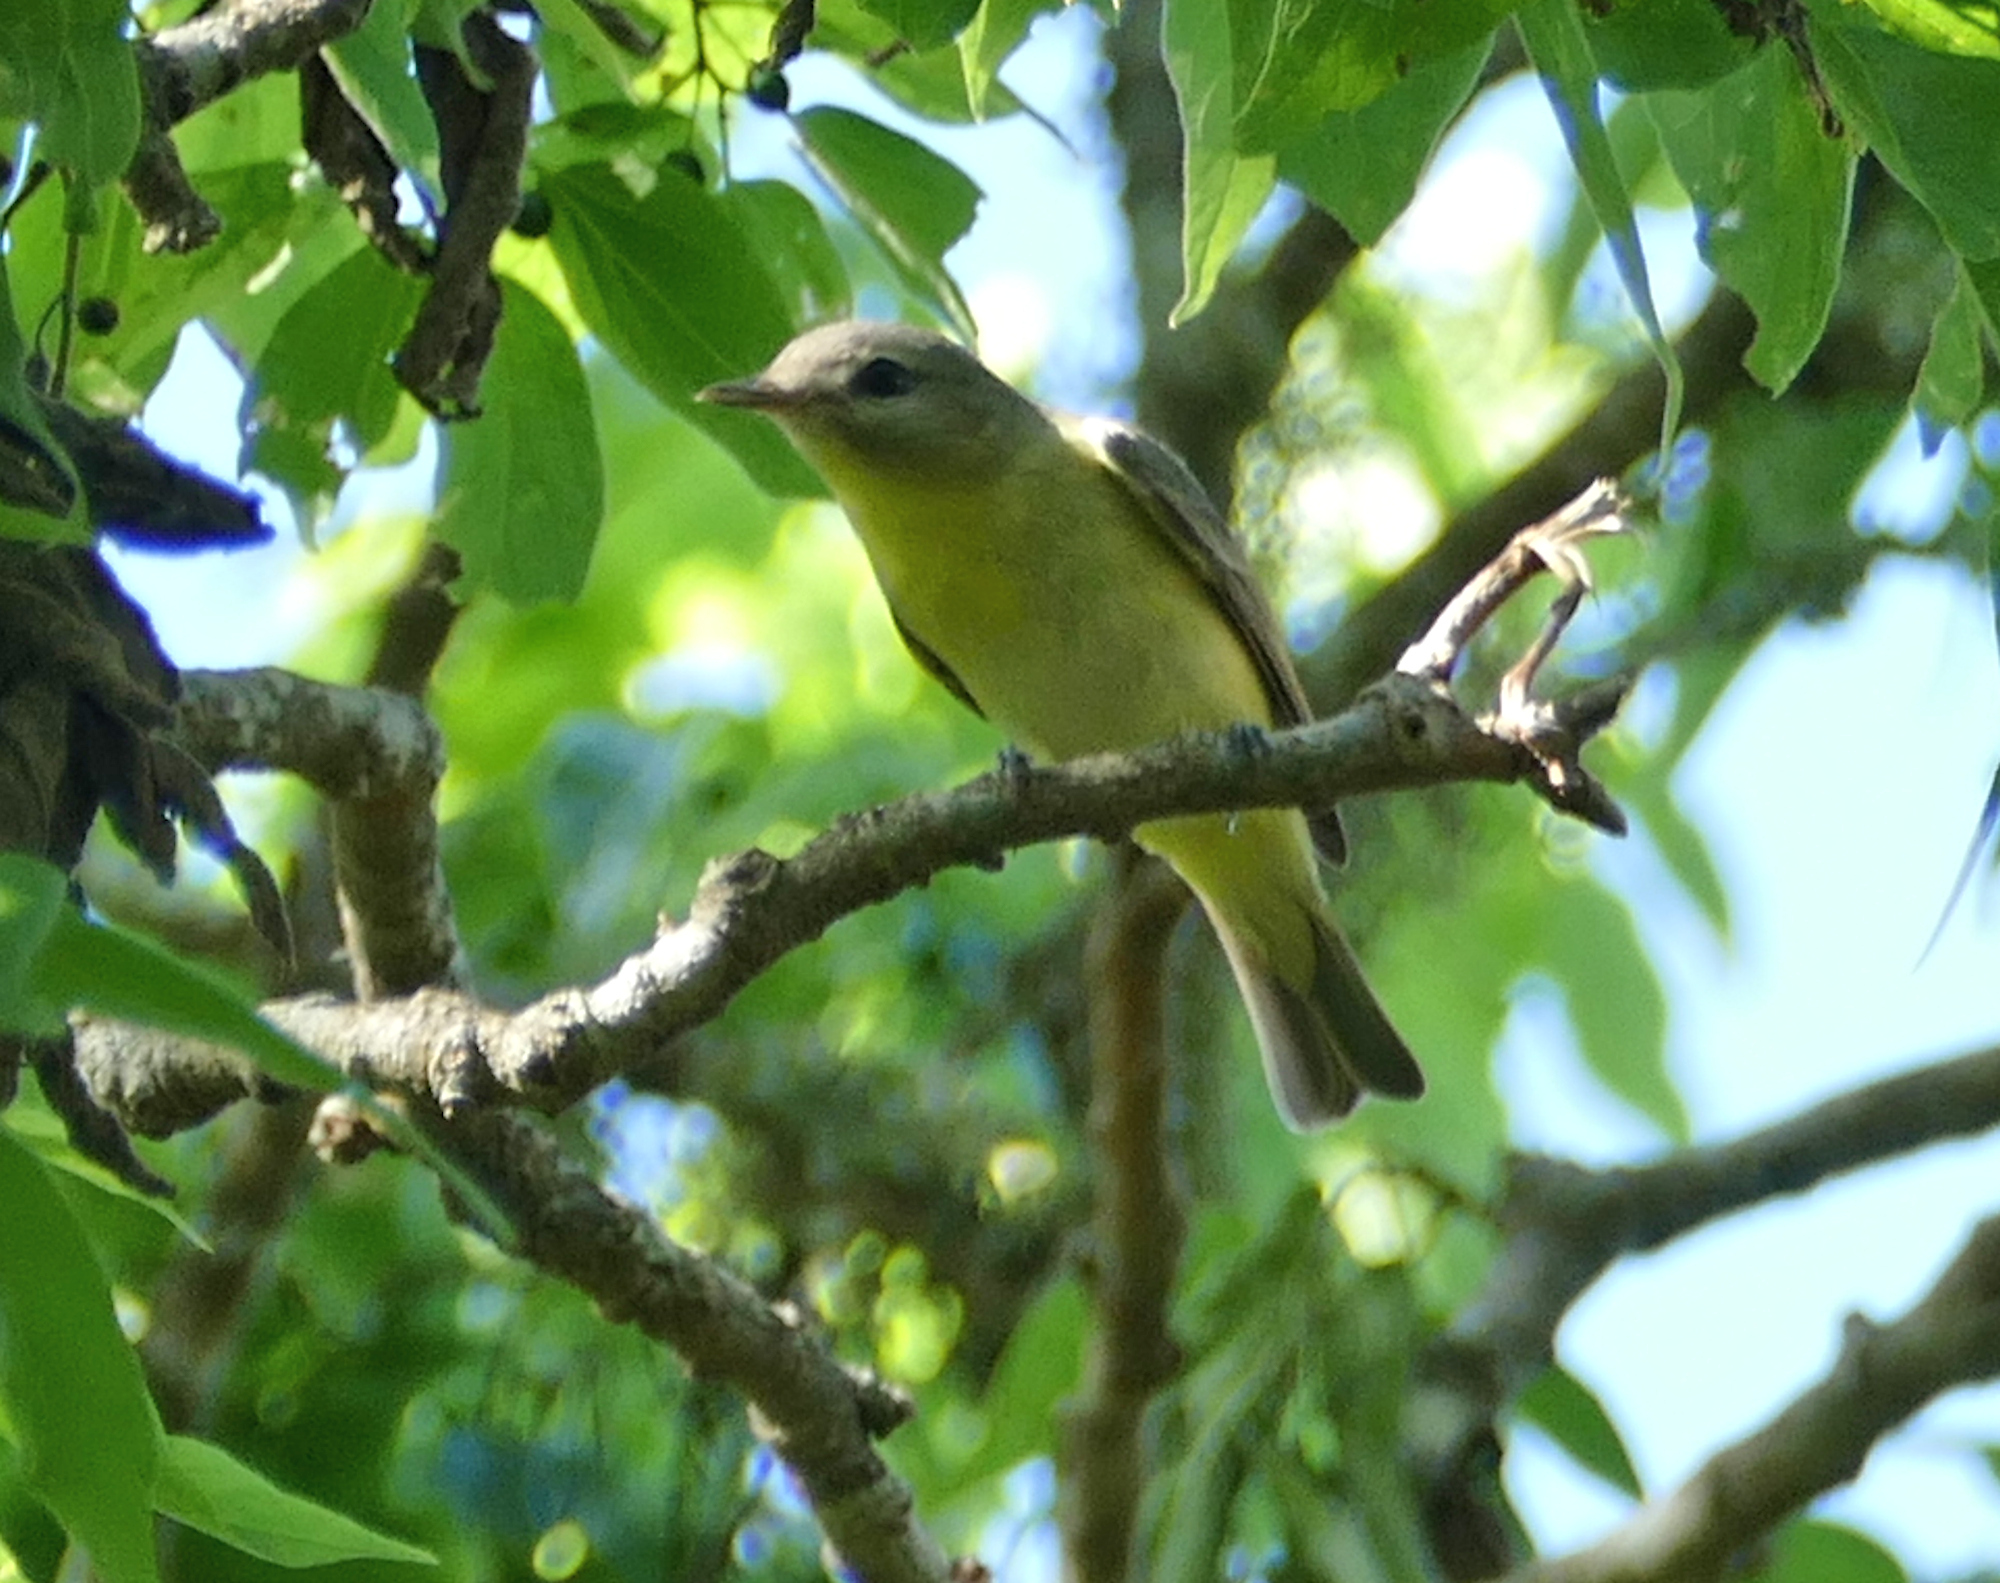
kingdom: Animalia
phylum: Chordata
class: Aves
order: Passeriformes
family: Vireonidae
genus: Vireo
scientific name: Vireo philadelphicus
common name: Philadelphia vireo
